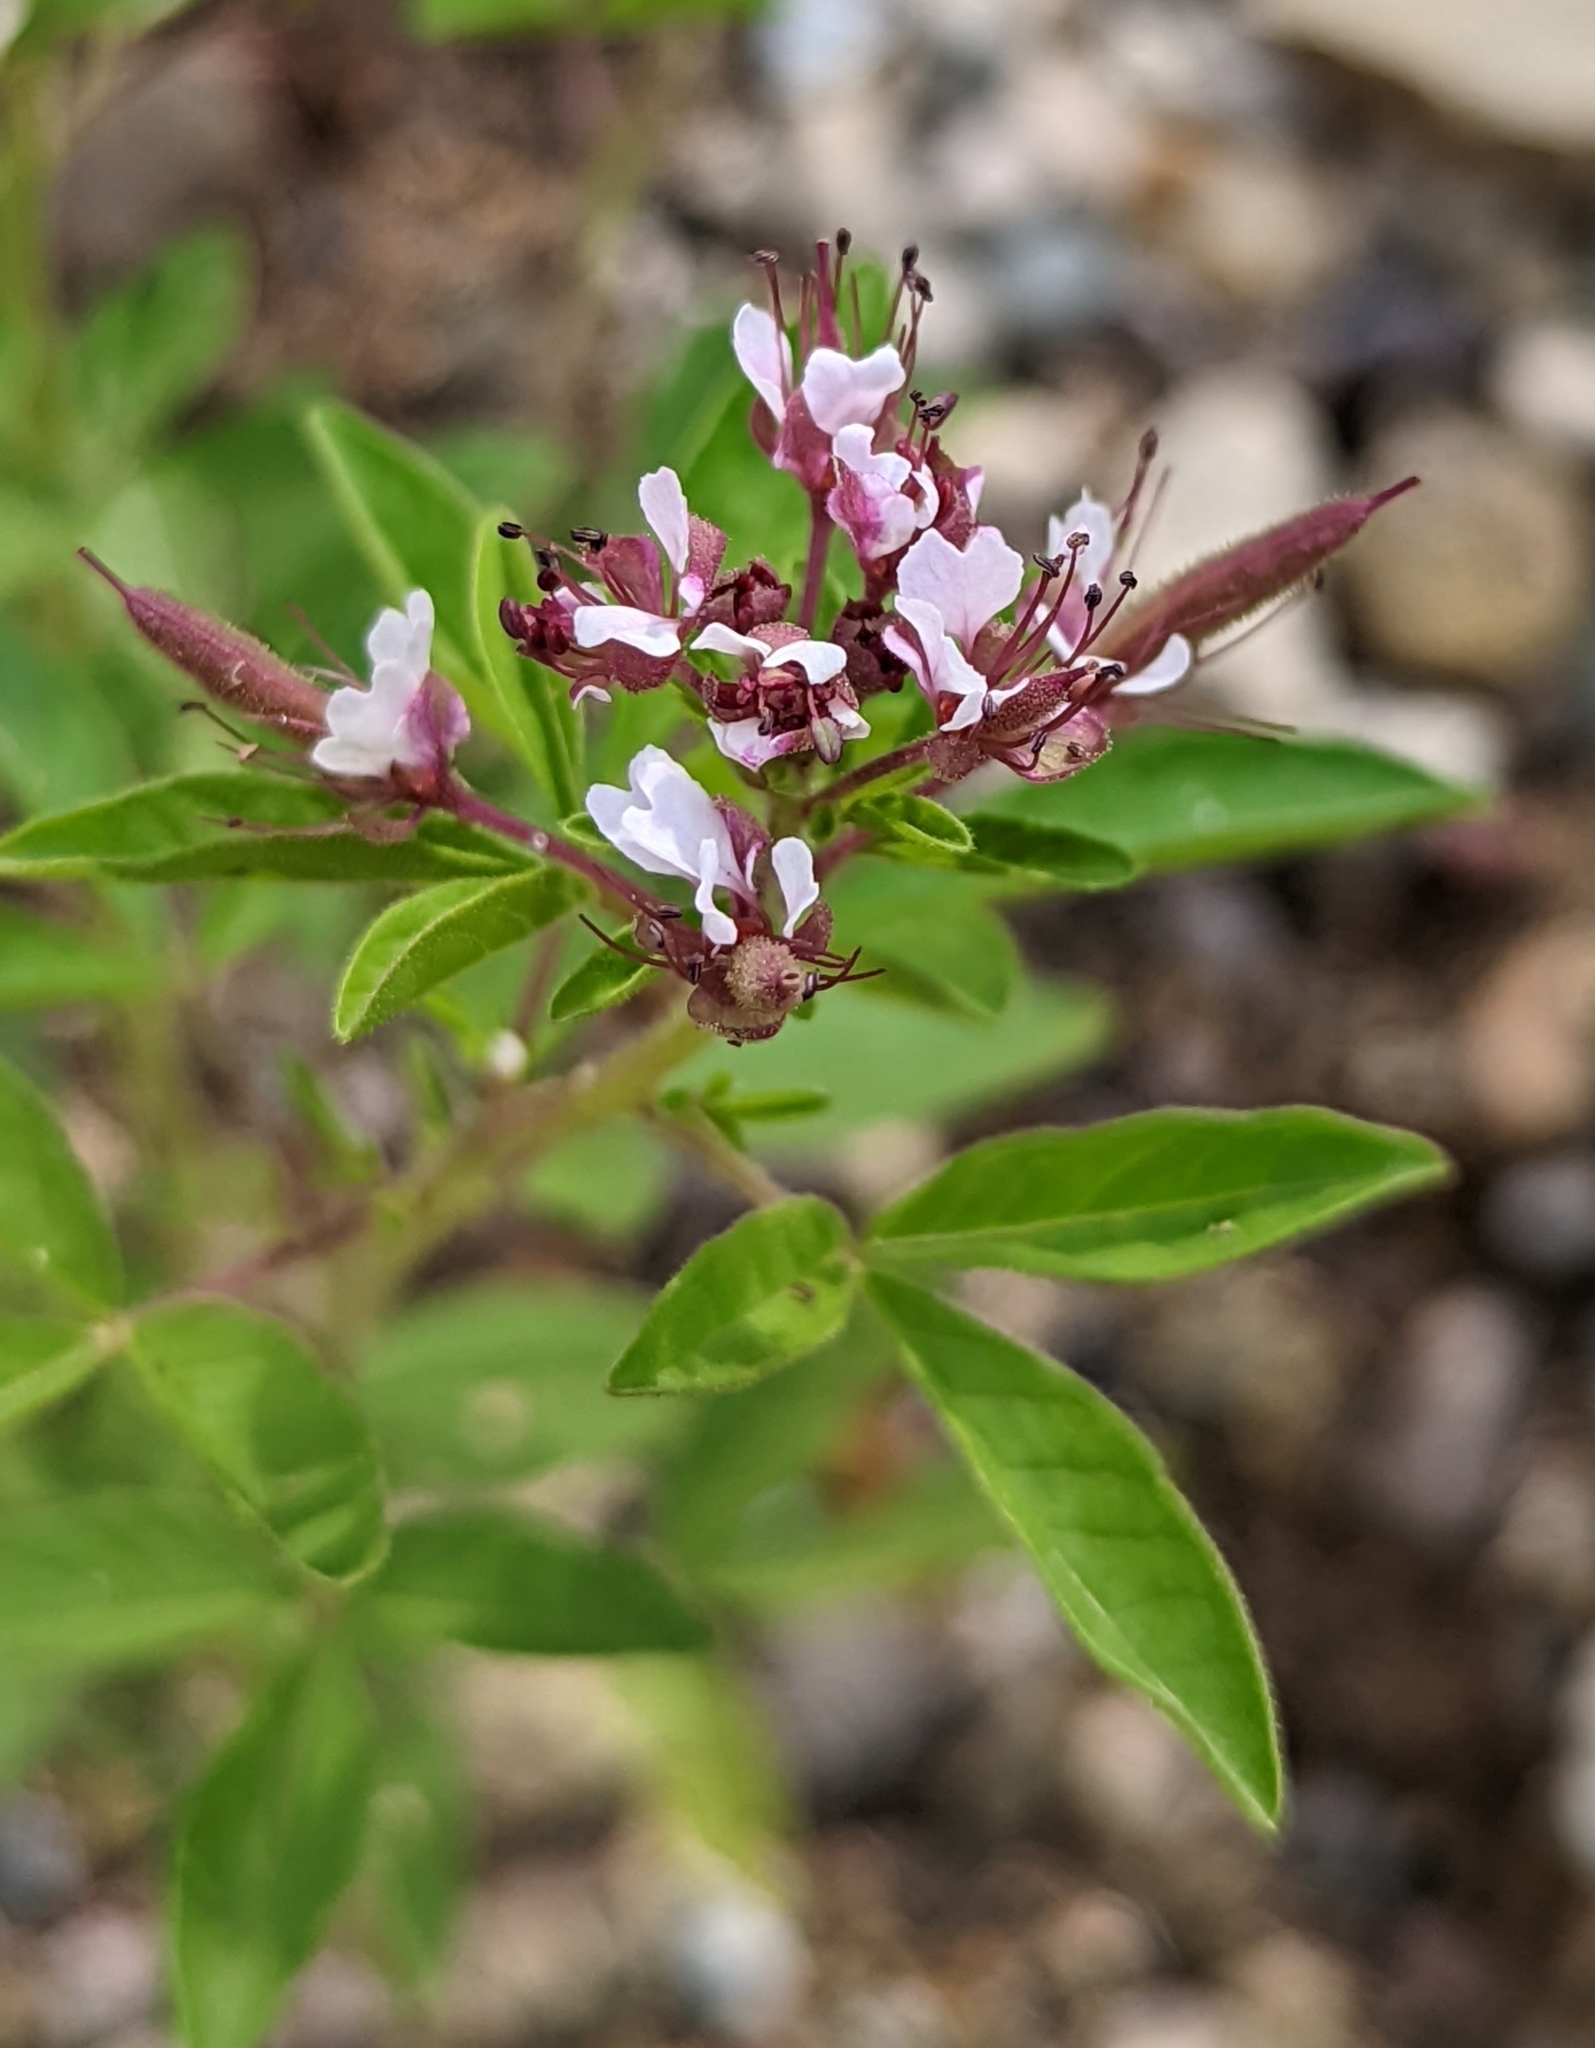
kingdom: Plantae
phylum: Tracheophyta
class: Magnoliopsida
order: Brassicales
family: Cleomaceae
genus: Polanisia
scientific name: Polanisia dodecandra
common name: Clammyweed
